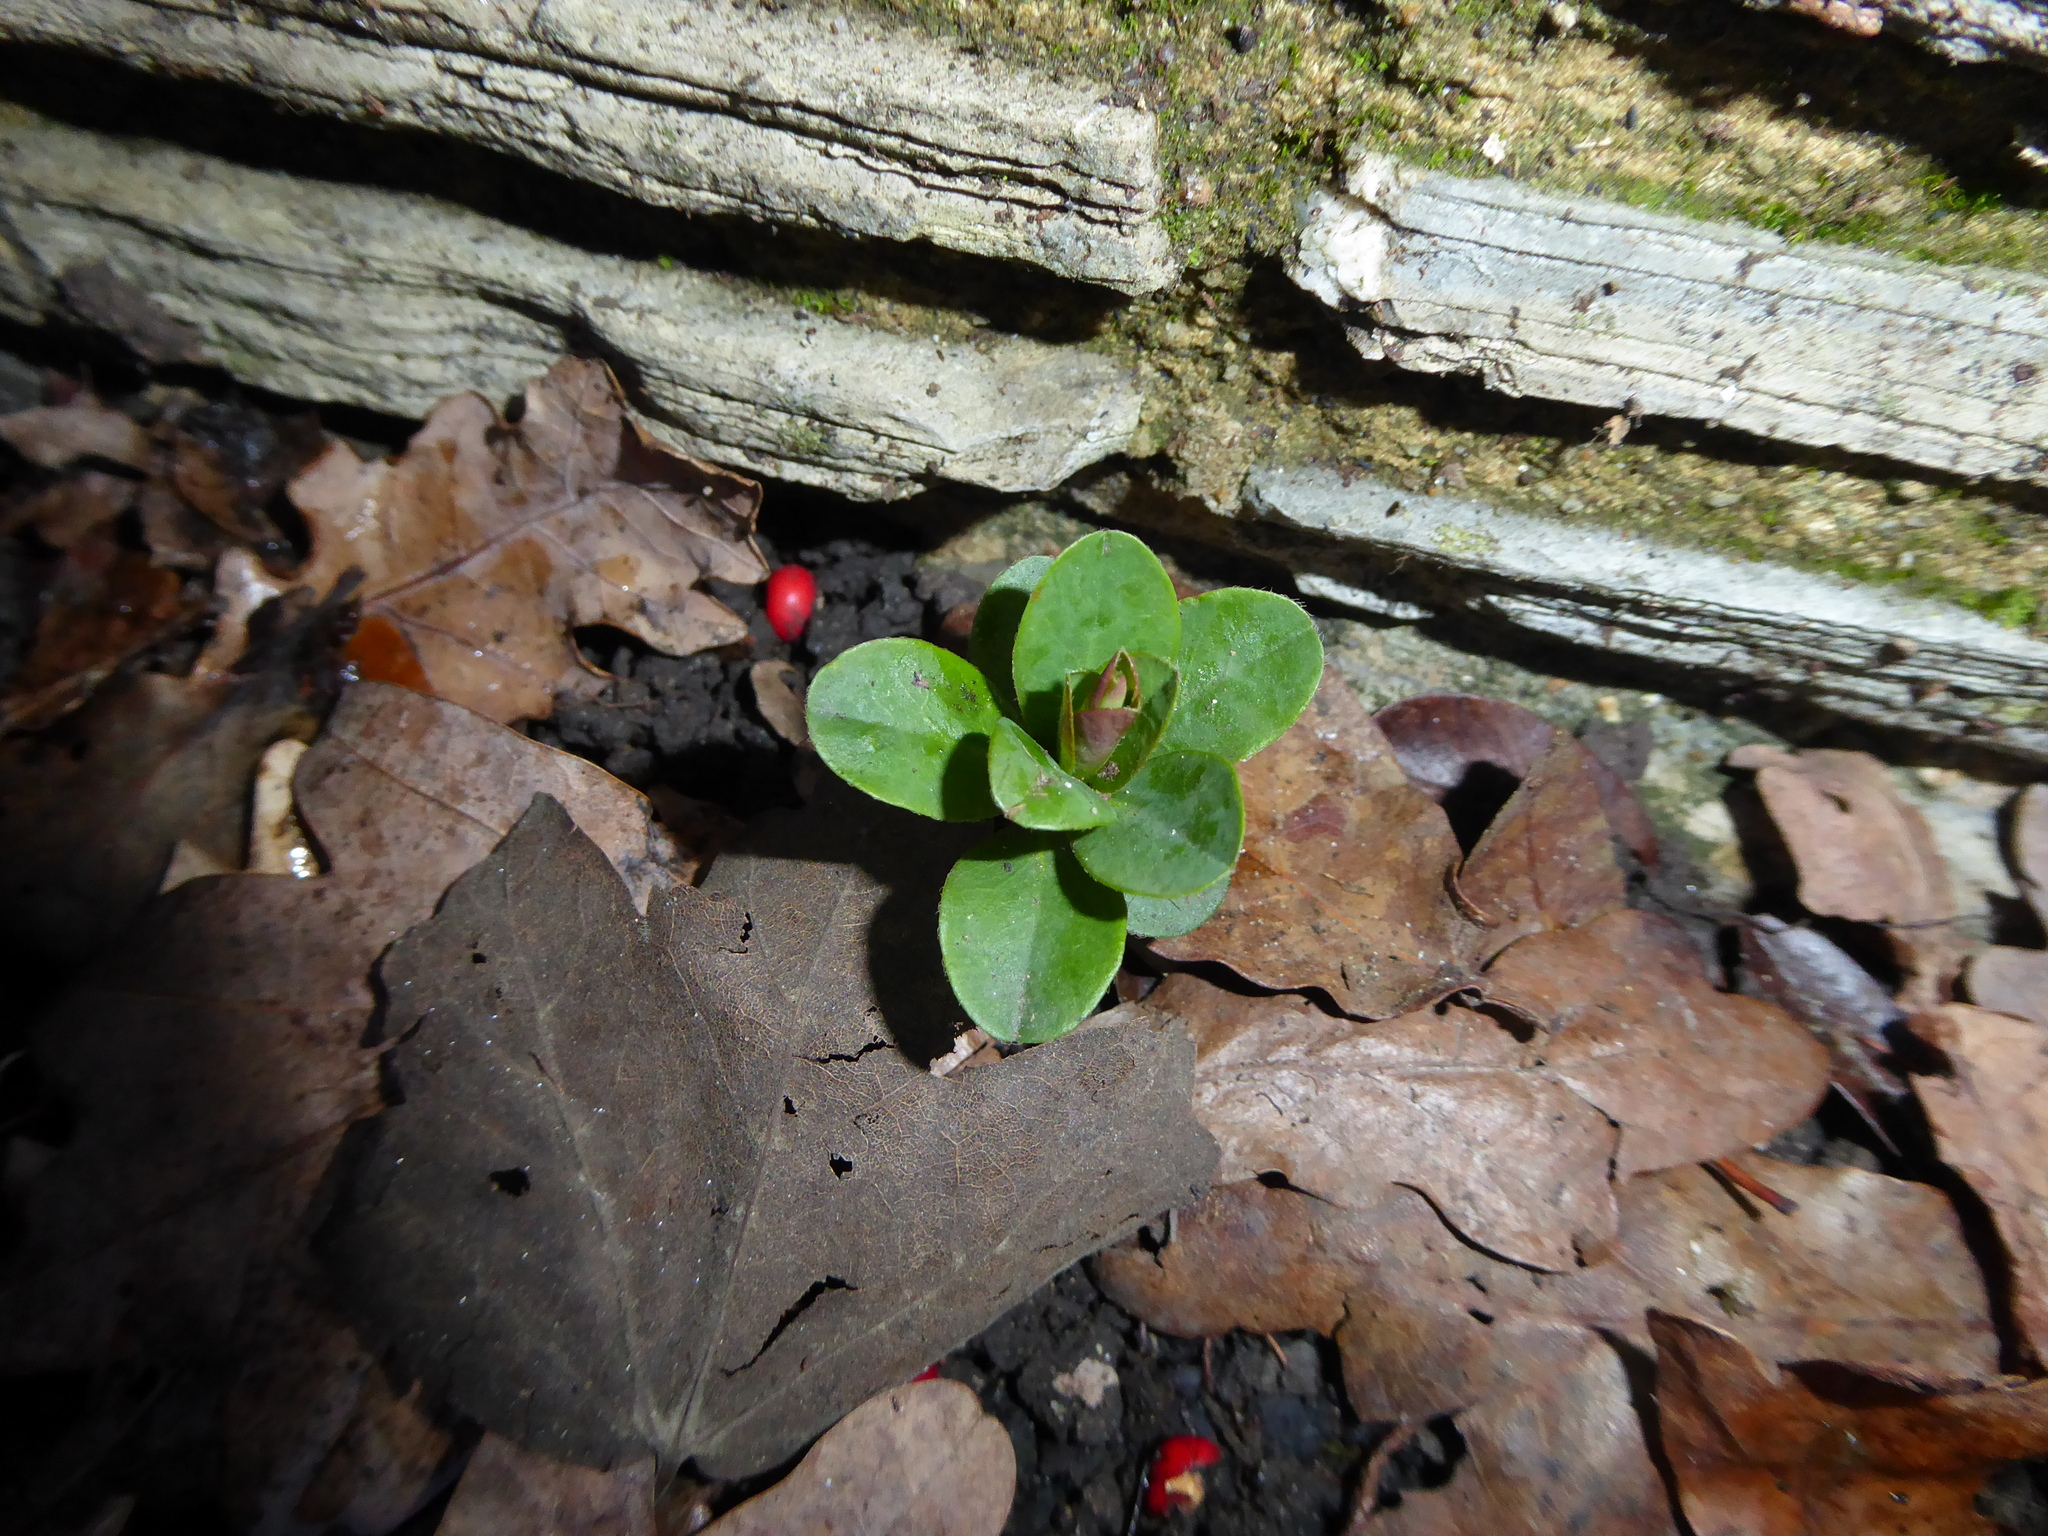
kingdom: Plantae
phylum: Tracheophyta
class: Magnoliopsida
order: Malpighiales
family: Euphorbiaceae
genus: Euphorbia
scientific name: Euphorbia amygdaloides
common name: Wood spurge
